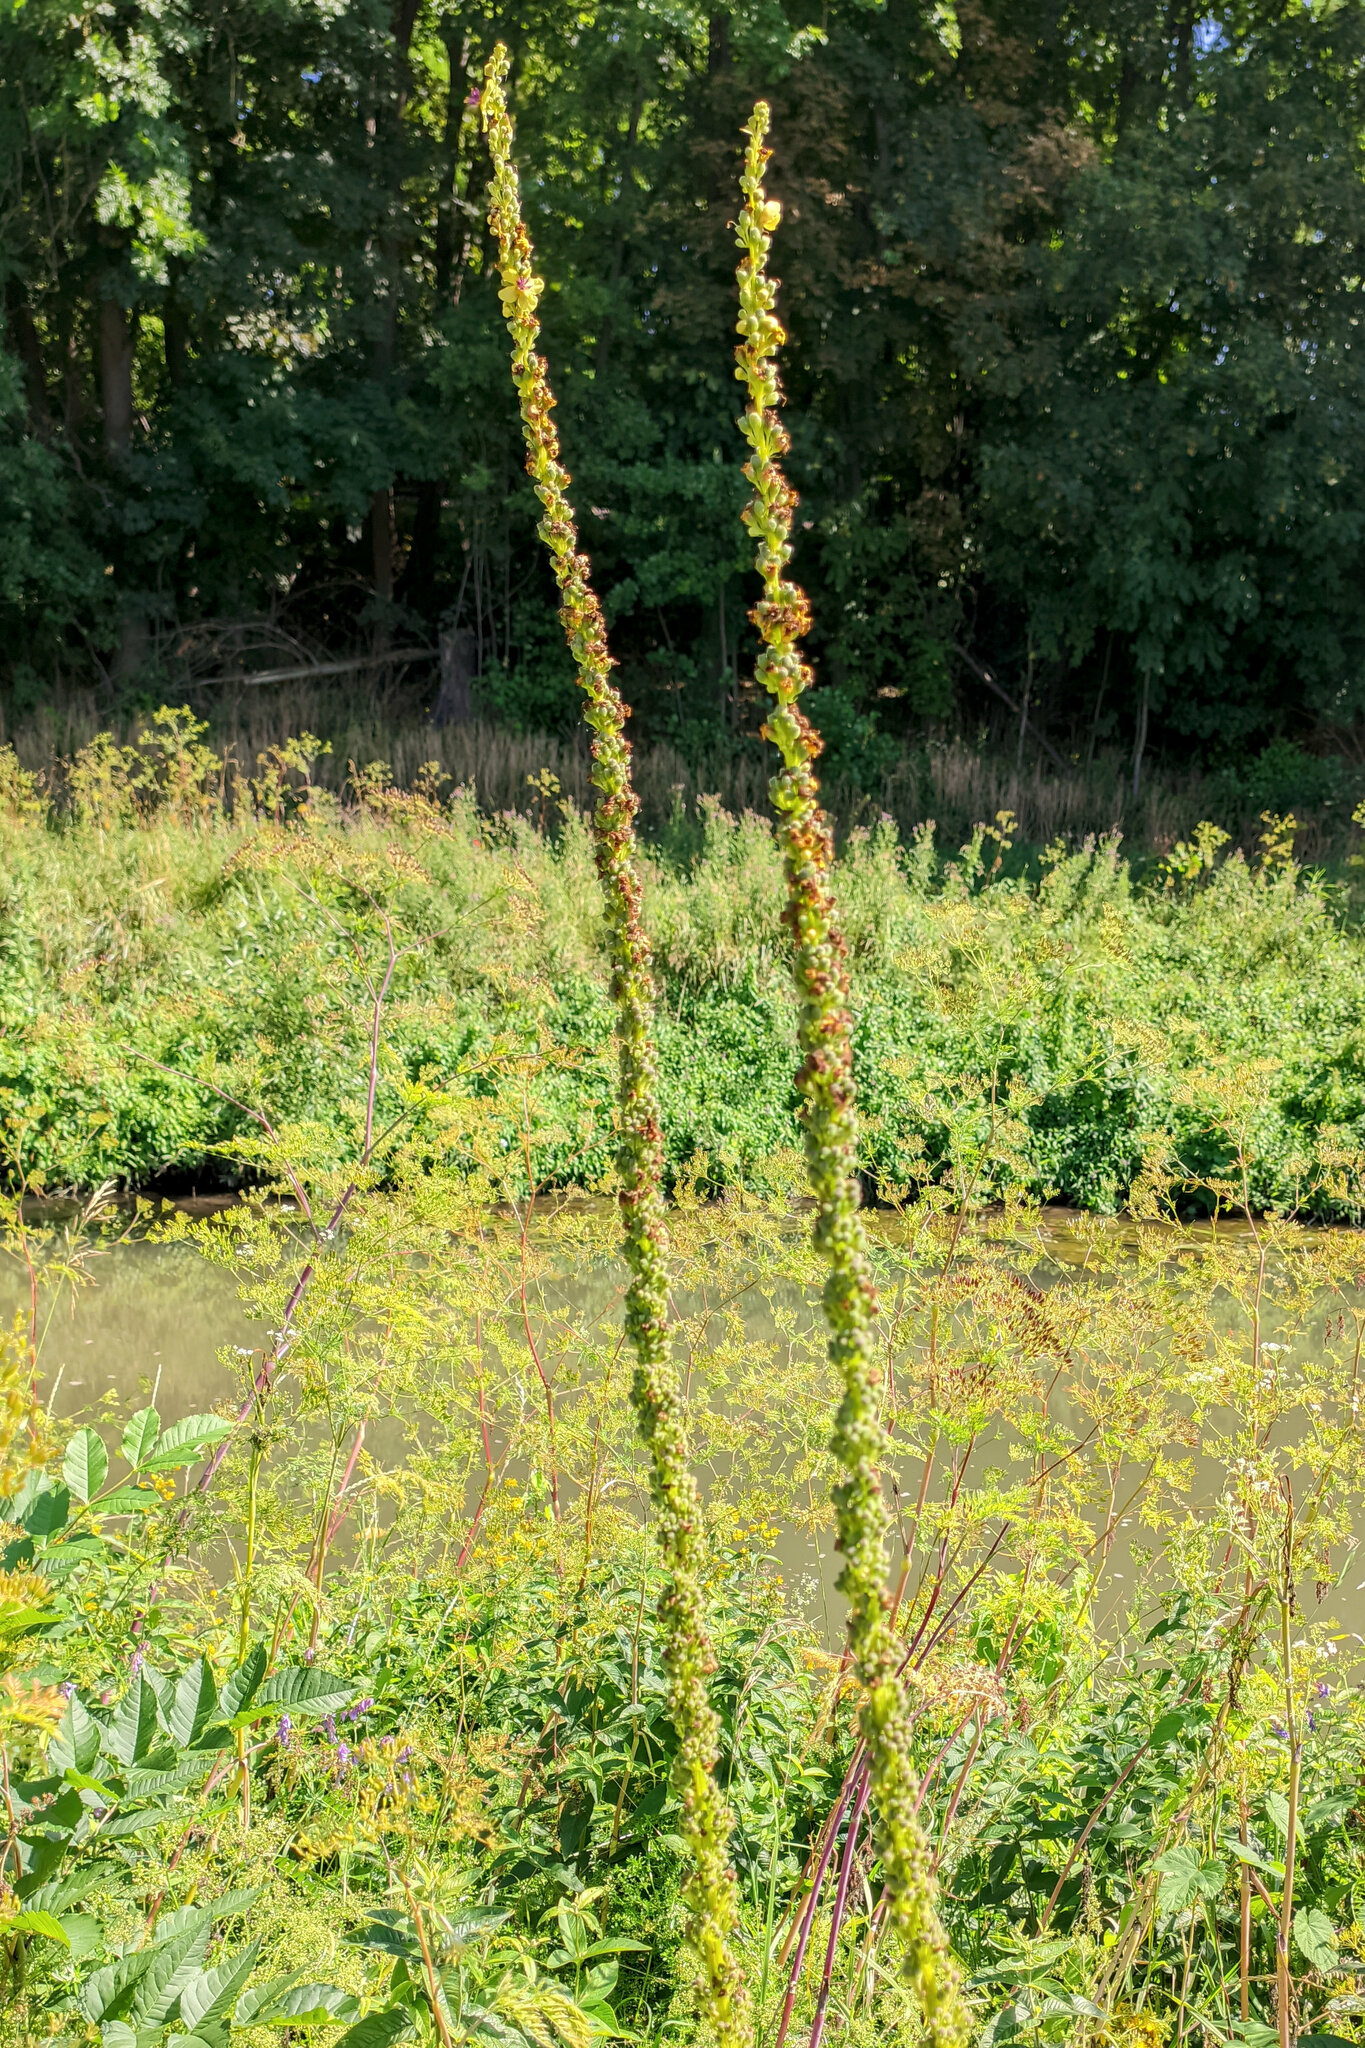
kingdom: Plantae
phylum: Tracheophyta
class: Magnoliopsida
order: Lamiales
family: Scrophulariaceae
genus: Verbascum
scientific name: Verbascum nigrum
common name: Dark mullein
